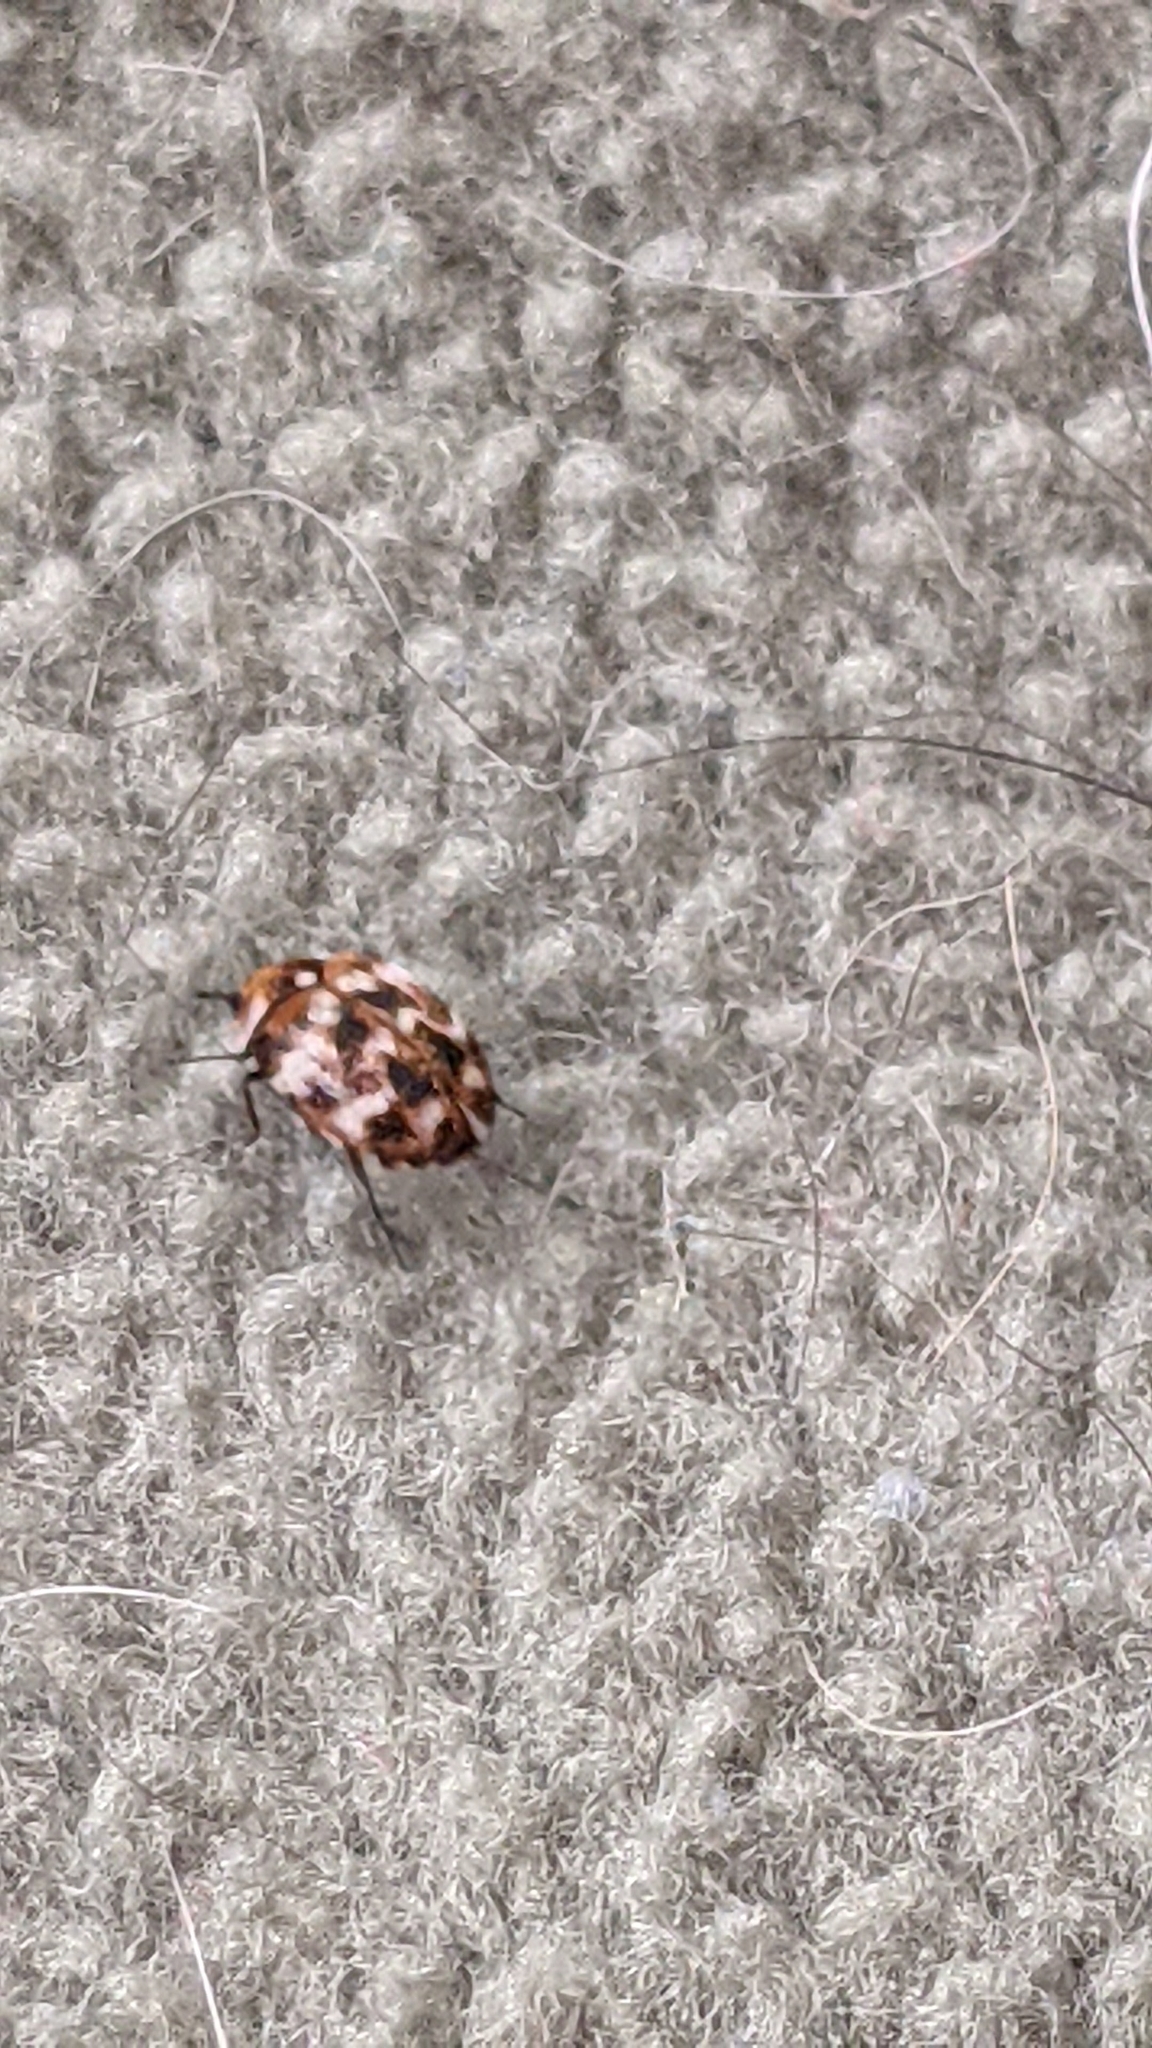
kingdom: Animalia
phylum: Arthropoda
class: Insecta
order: Coleoptera
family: Dermestidae
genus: Anthrenus
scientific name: Anthrenus verbasci
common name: Varied carpet beetle
